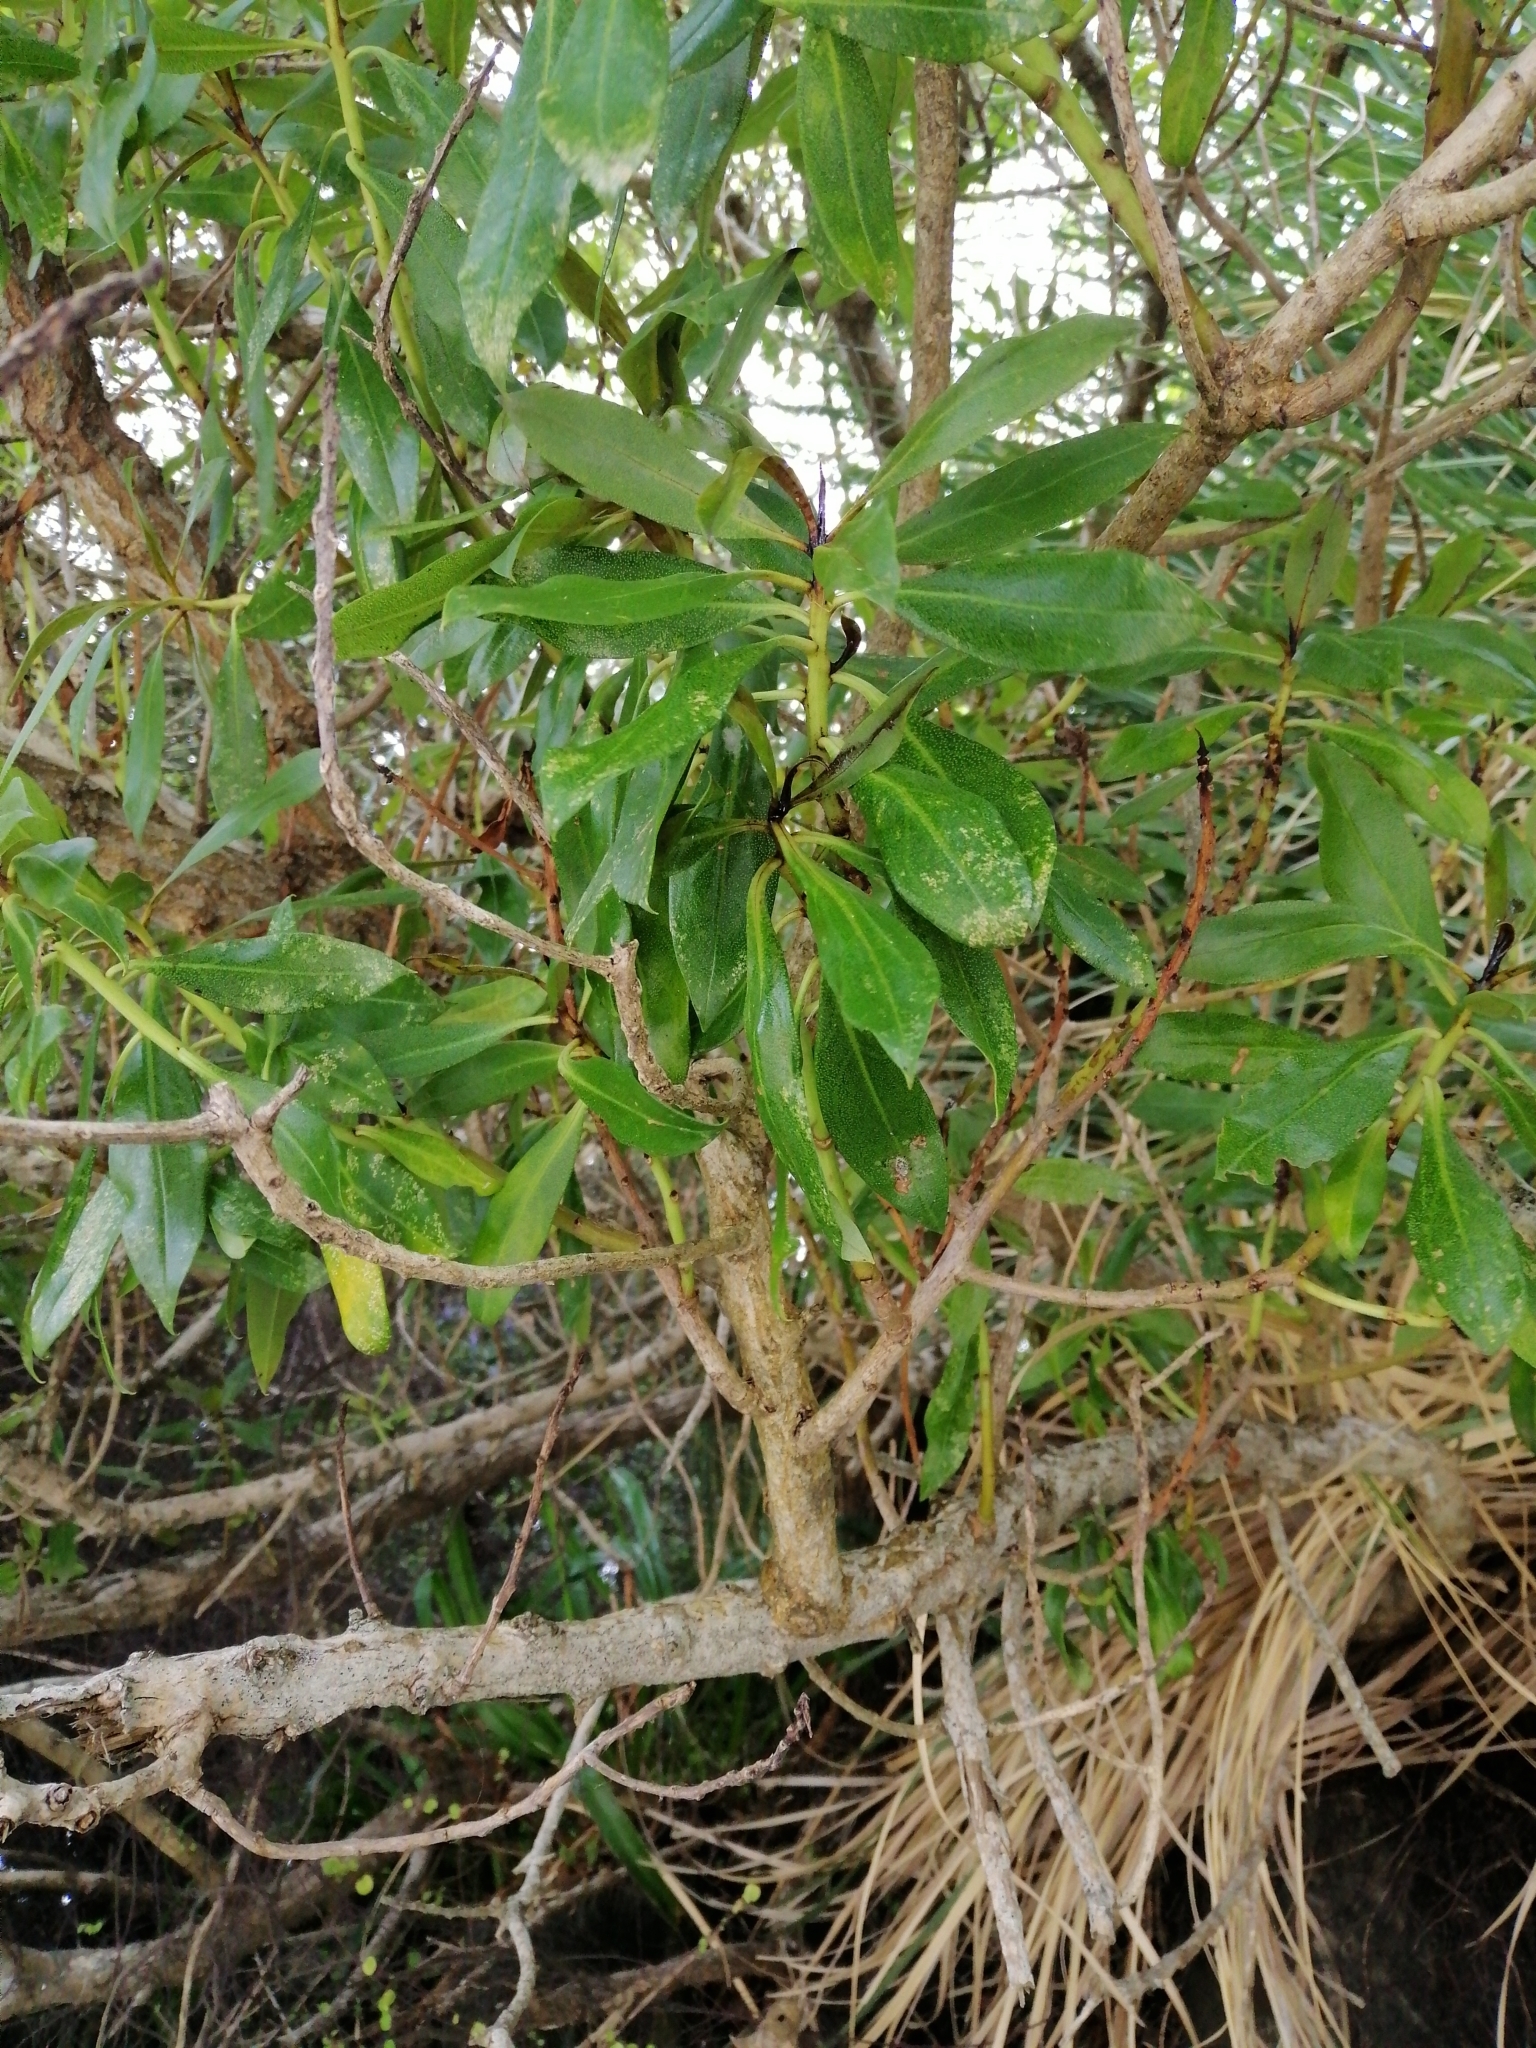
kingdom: Plantae
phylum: Tracheophyta
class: Magnoliopsida
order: Lamiales
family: Scrophulariaceae
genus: Myoporum
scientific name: Myoporum laetum
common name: Ngaio tree
